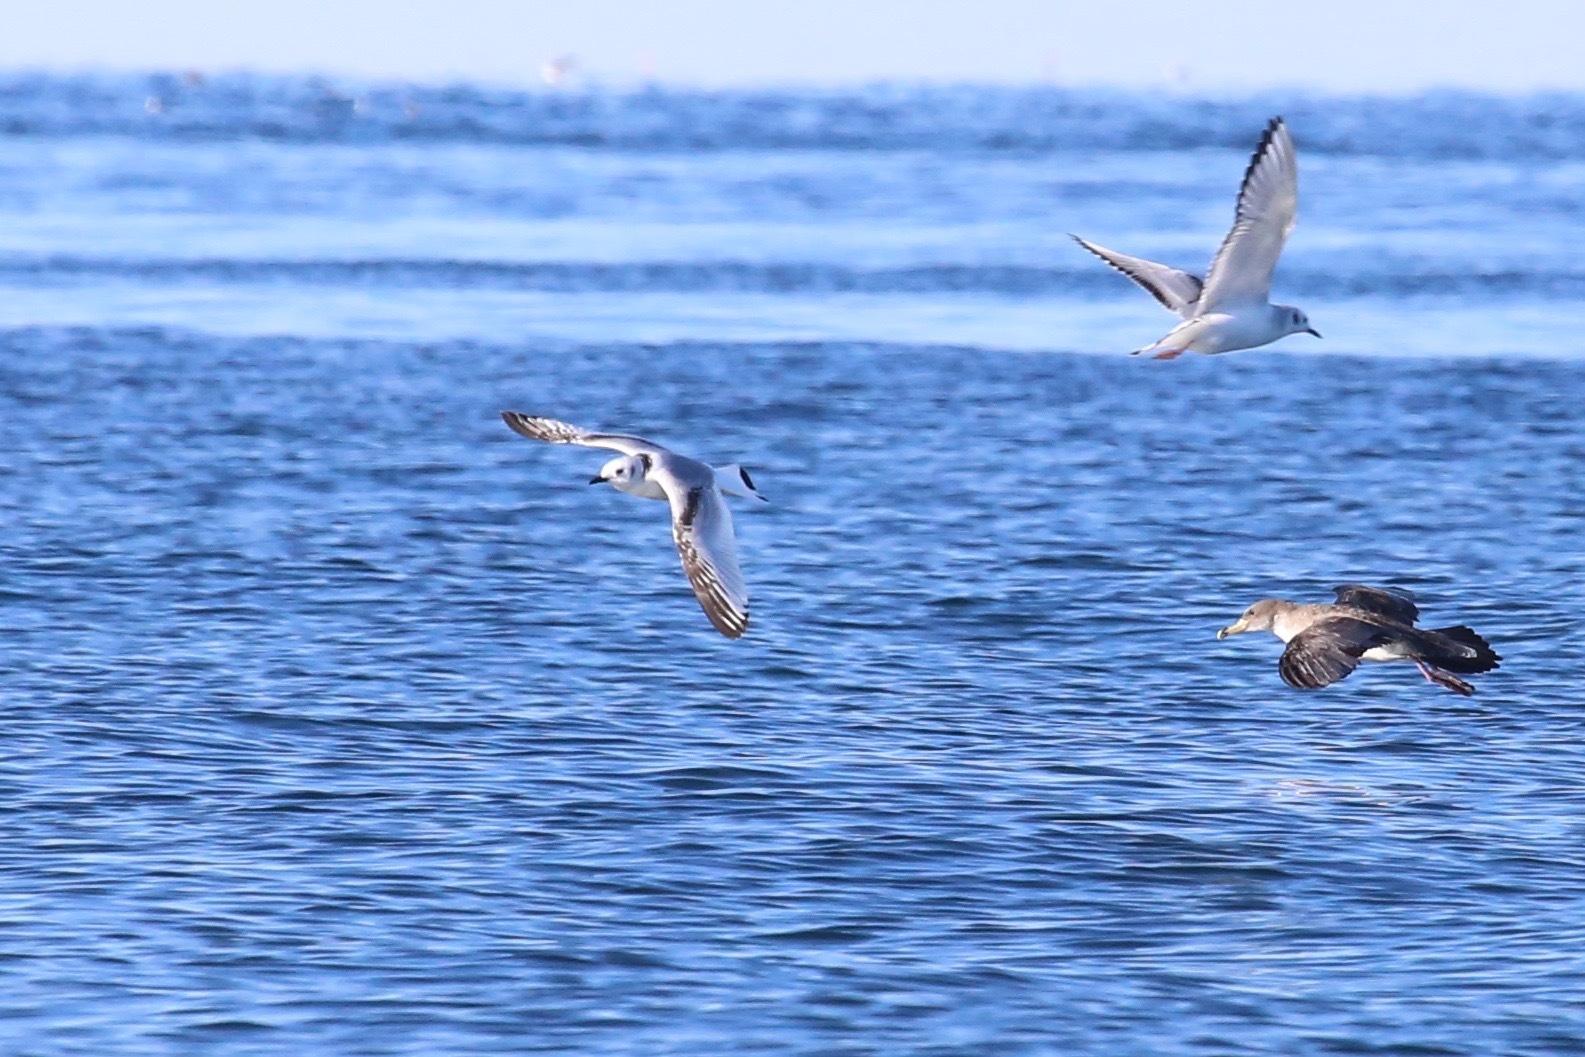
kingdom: Animalia
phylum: Chordata
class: Aves
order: Charadriiformes
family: Laridae
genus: Rissa
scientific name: Rissa tridactyla
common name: Black-legged kittiwake
